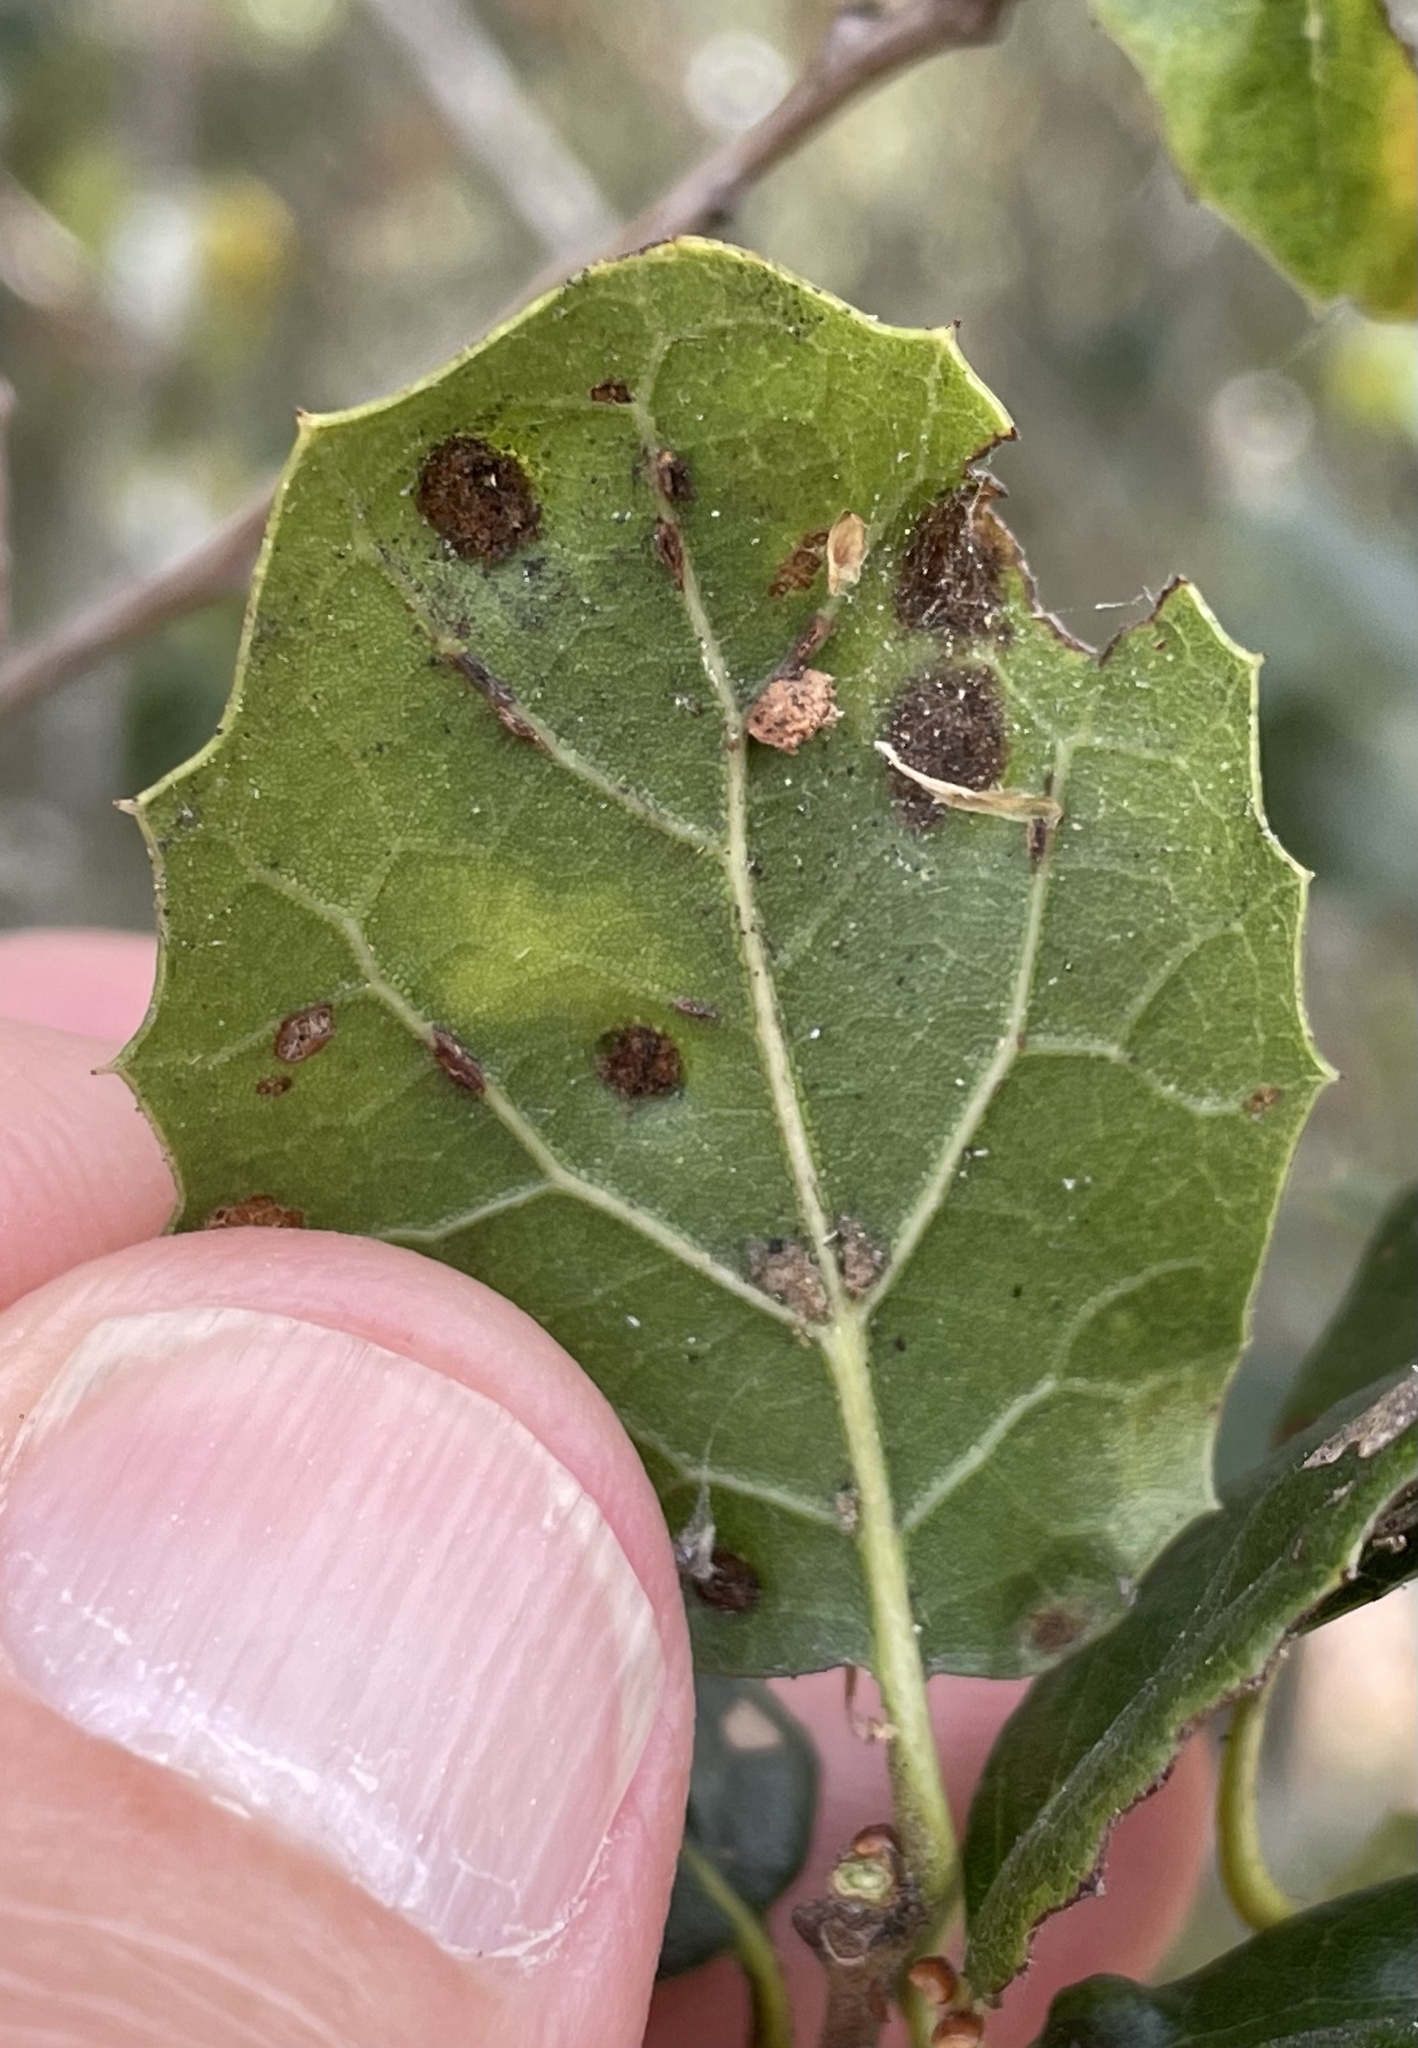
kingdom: Animalia
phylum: Arthropoda
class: Arachnida
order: Trombidiformes
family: Eriophyidae
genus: Aceria
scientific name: Aceria
